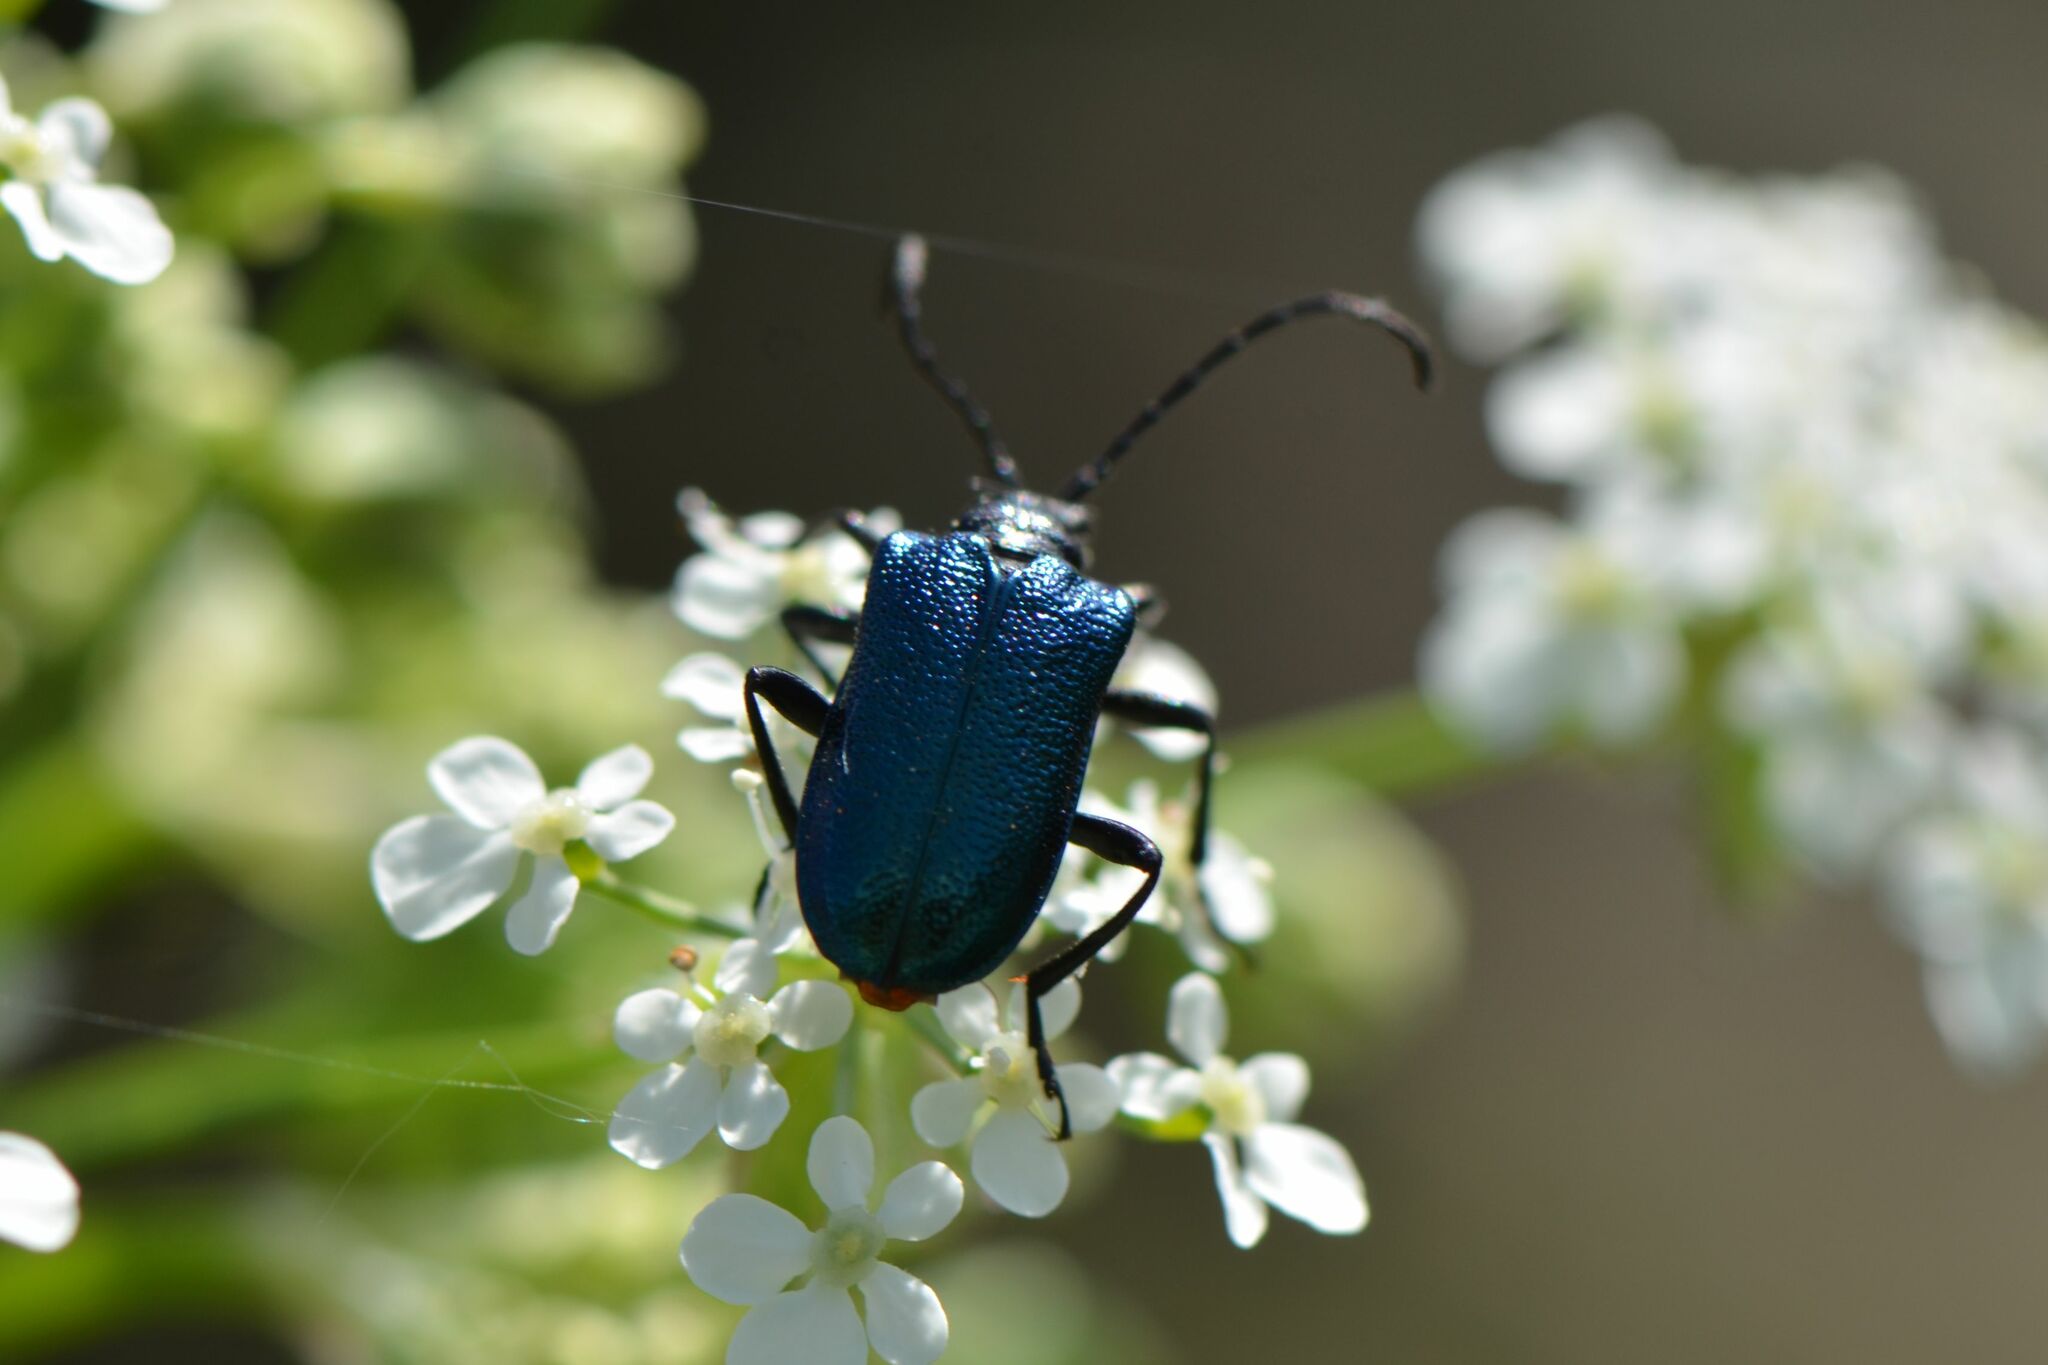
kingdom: Animalia
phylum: Arthropoda
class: Insecta
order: Coleoptera
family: Cerambycidae
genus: Gaurotes
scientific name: Gaurotes virginea
